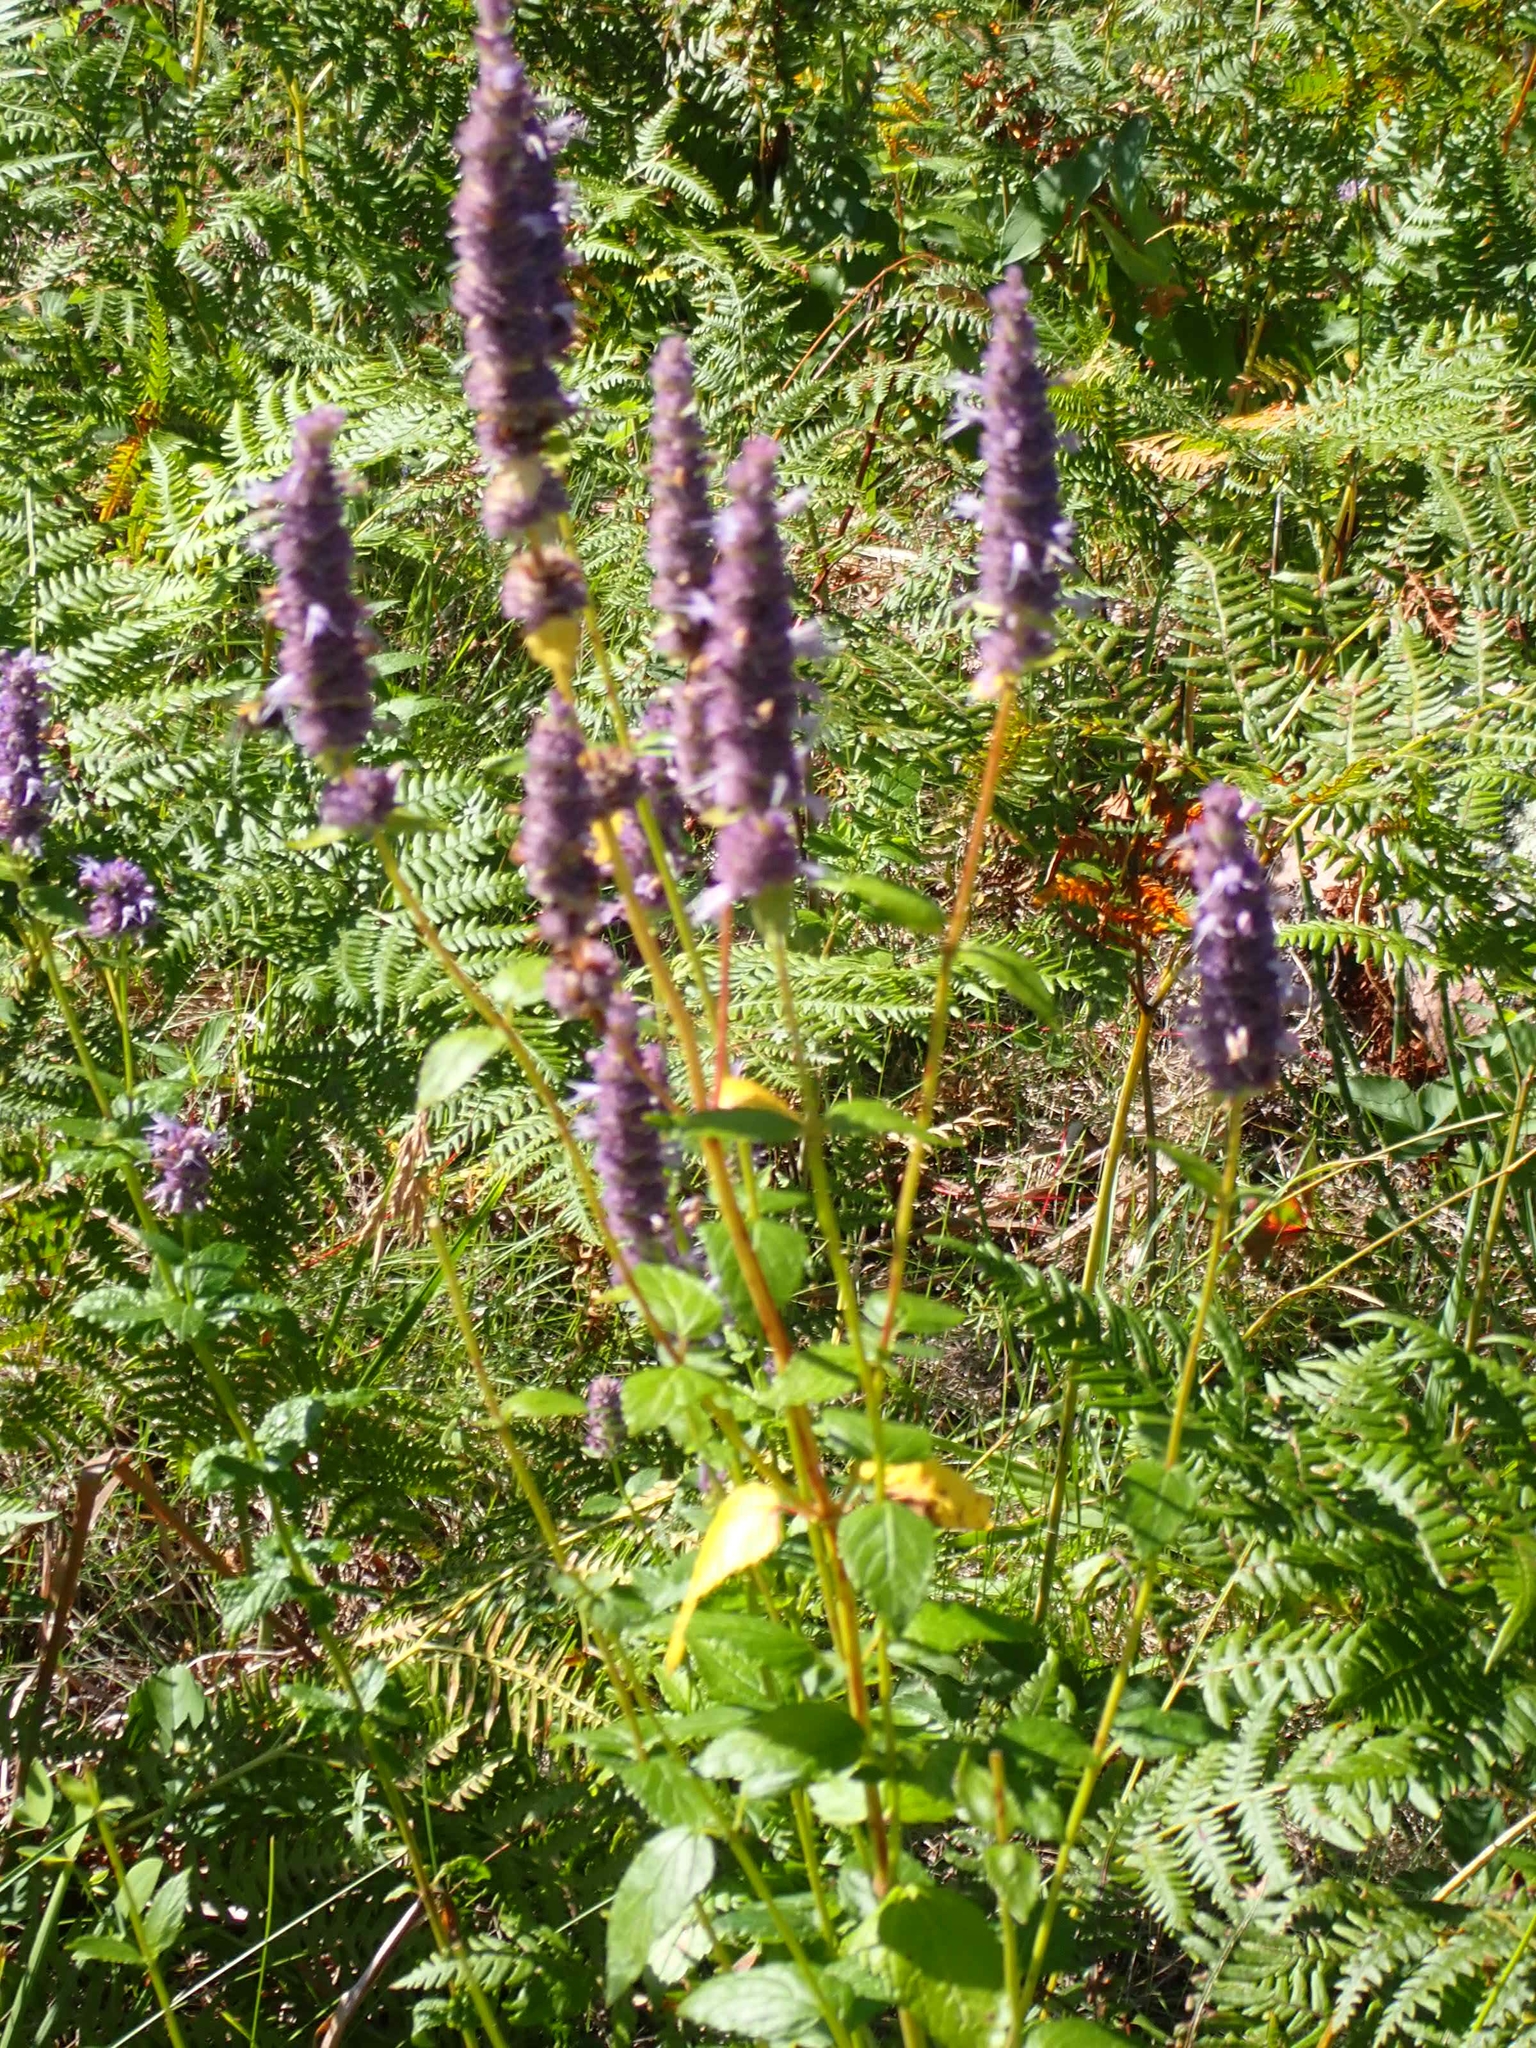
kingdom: Plantae
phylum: Tracheophyta
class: Magnoliopsida
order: Lamiales
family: Lamiaceae
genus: Agastache
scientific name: Agastache foeniculum
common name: Anise hyssop
